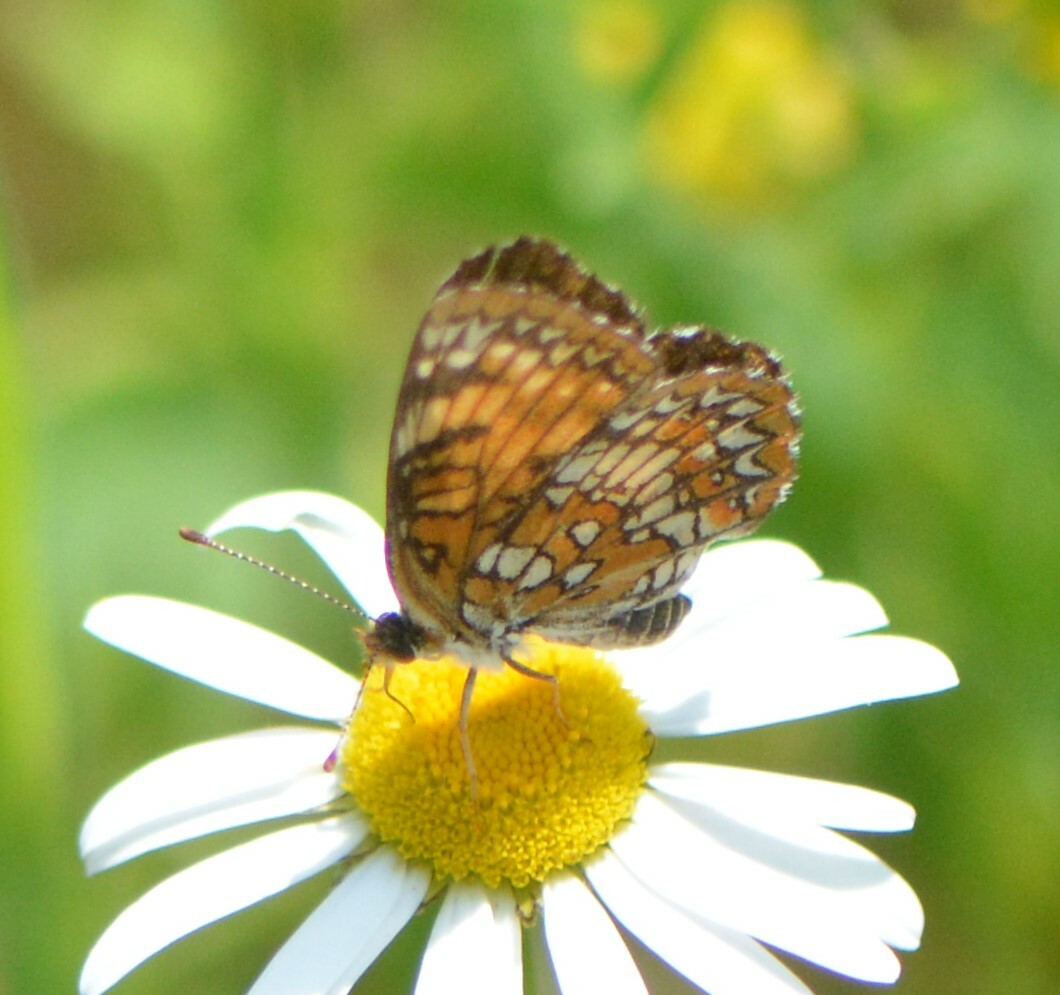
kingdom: Animalia
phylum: Arthropoda
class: Insecta
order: Lepidoptera
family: Nymphalidae
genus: Chlosyne
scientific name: Chlosyne harrisii
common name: Harris's checkerspot
